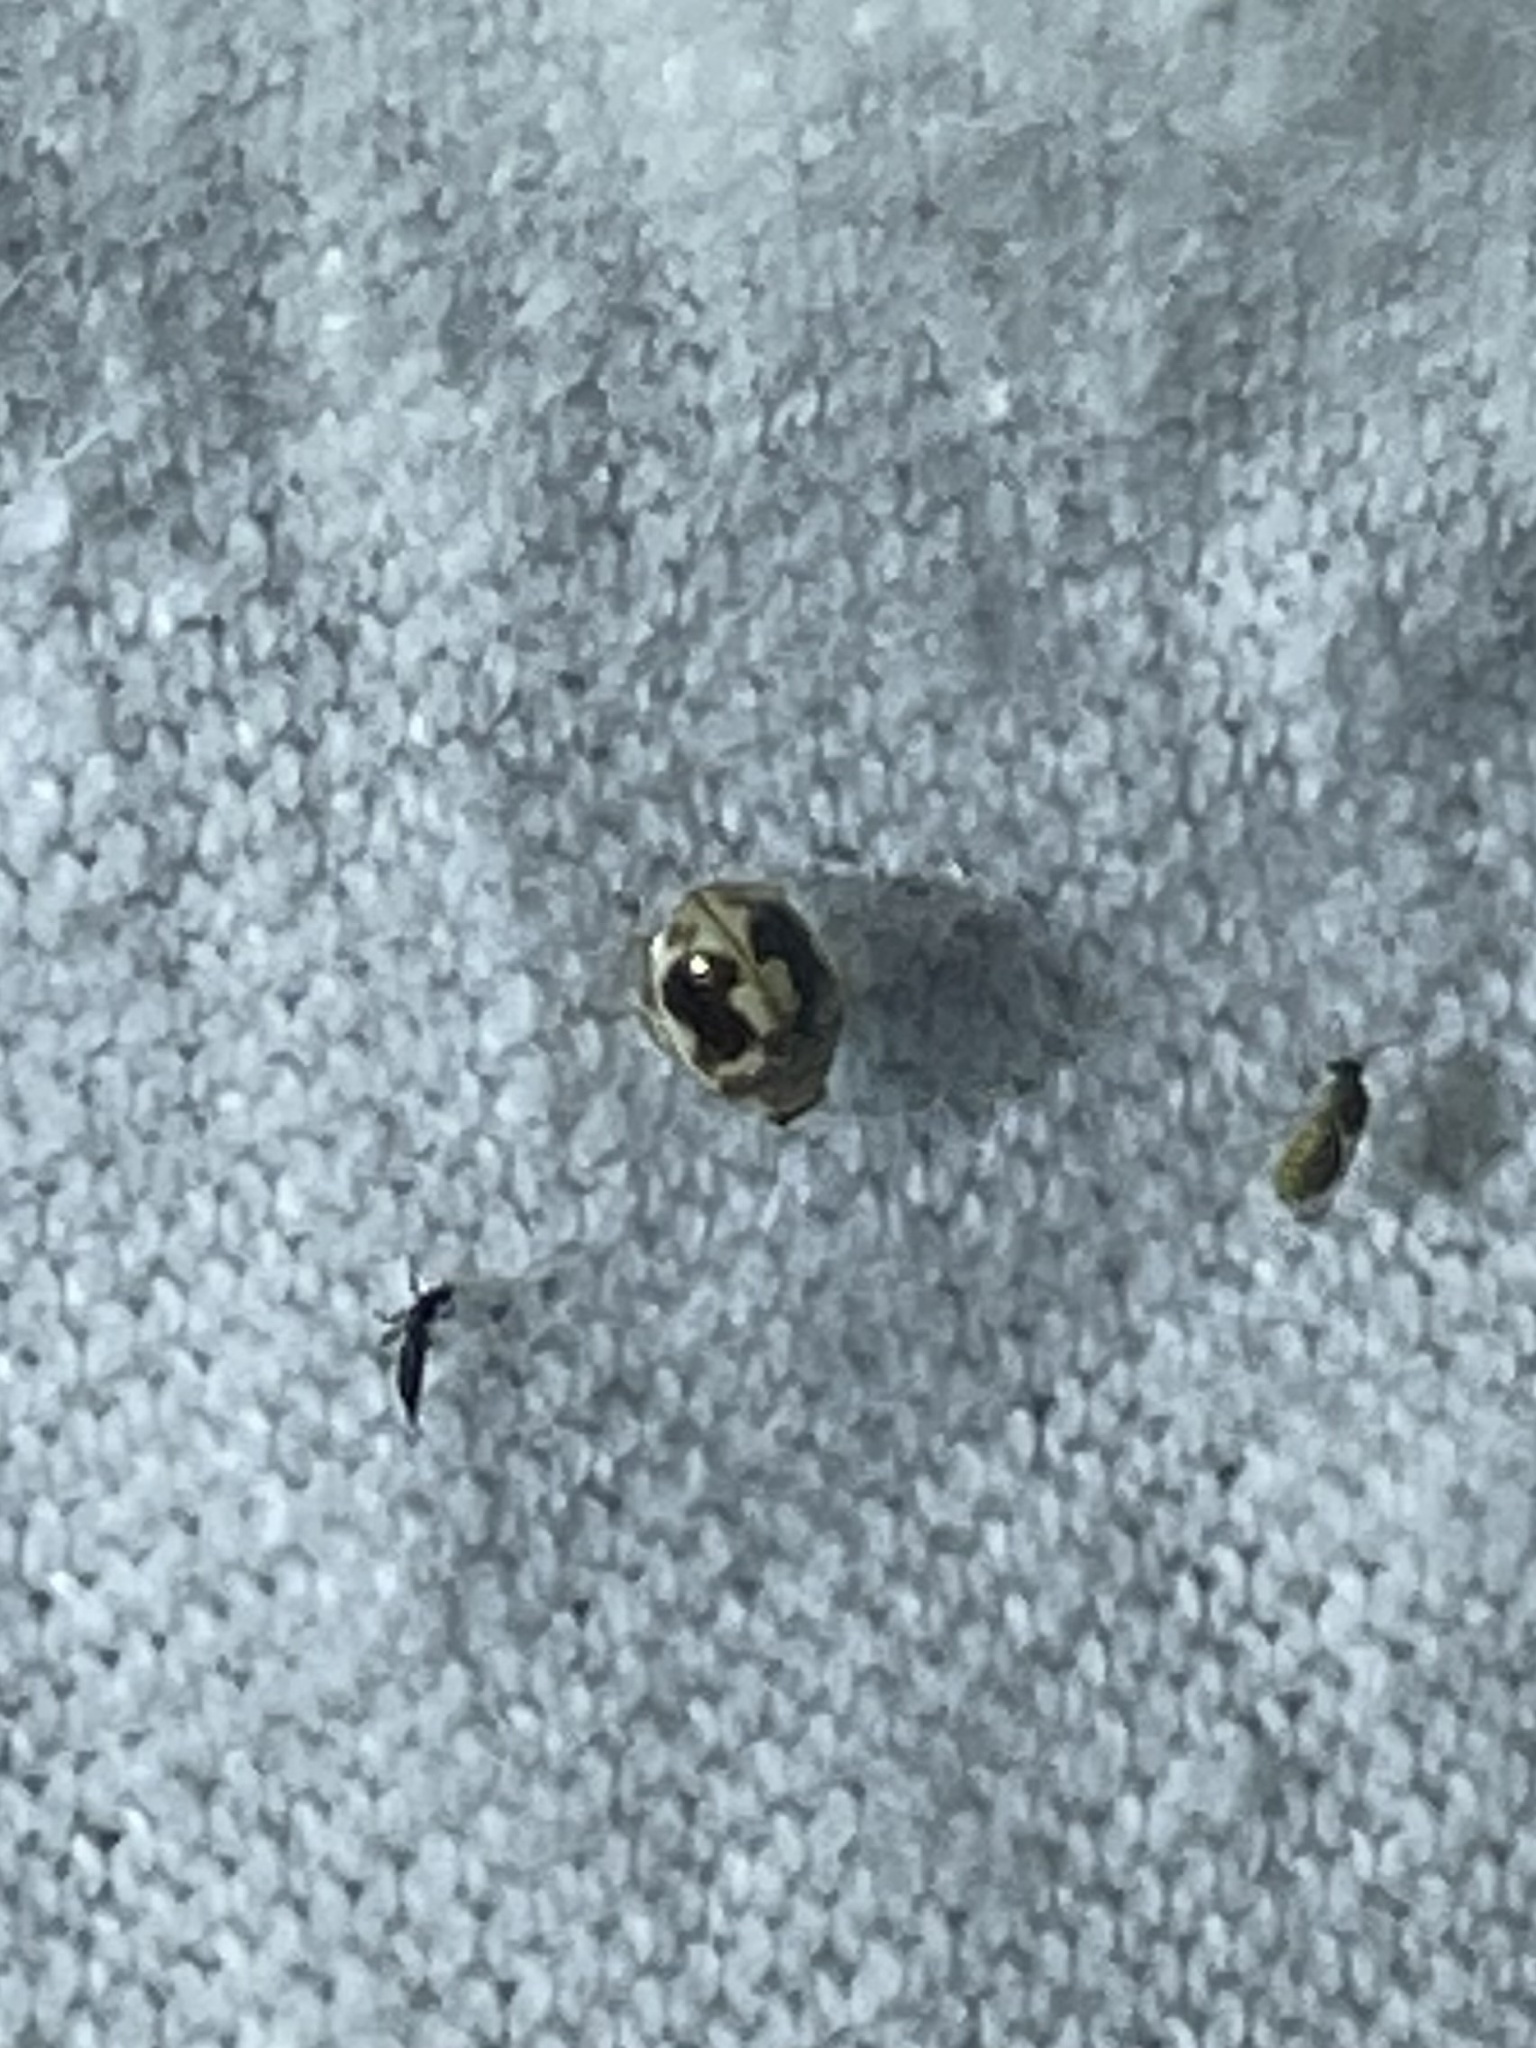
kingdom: Animalia
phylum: Arthropoda
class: Insecta
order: Coleoptera
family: Coccinellidae
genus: Psyllobora
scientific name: Psyllobora renifer
